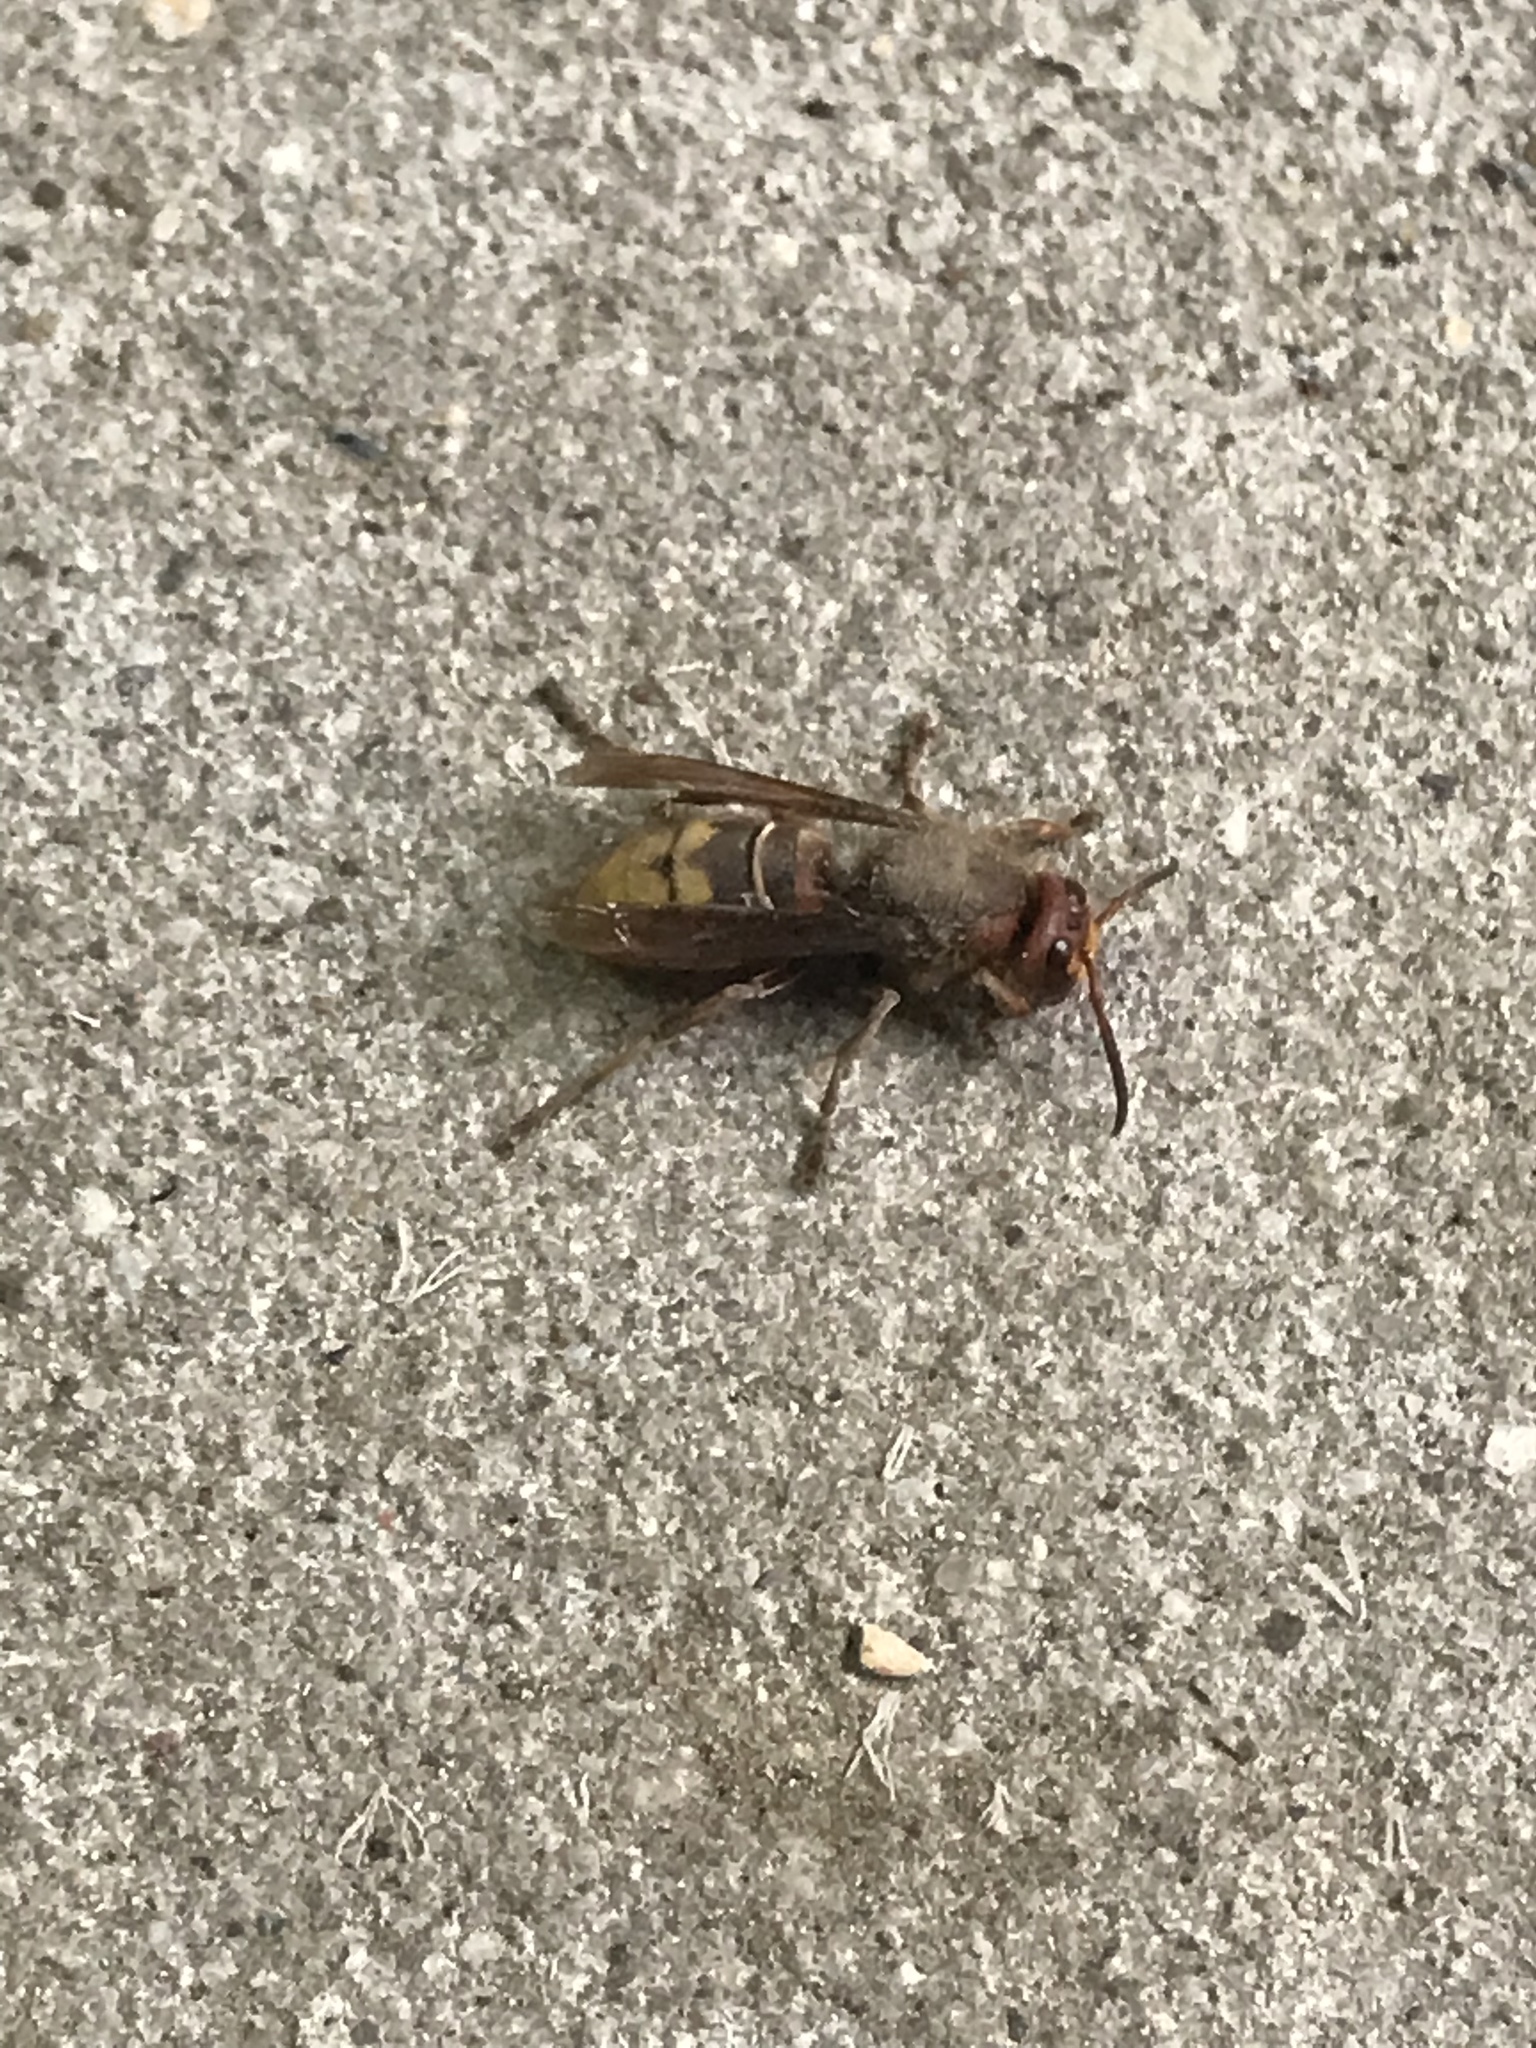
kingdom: Animalia
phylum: Arthropoda
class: Insecta
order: Hymenoptera
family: Vespidae
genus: Vespa
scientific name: Vespa crabro
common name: Hornet
